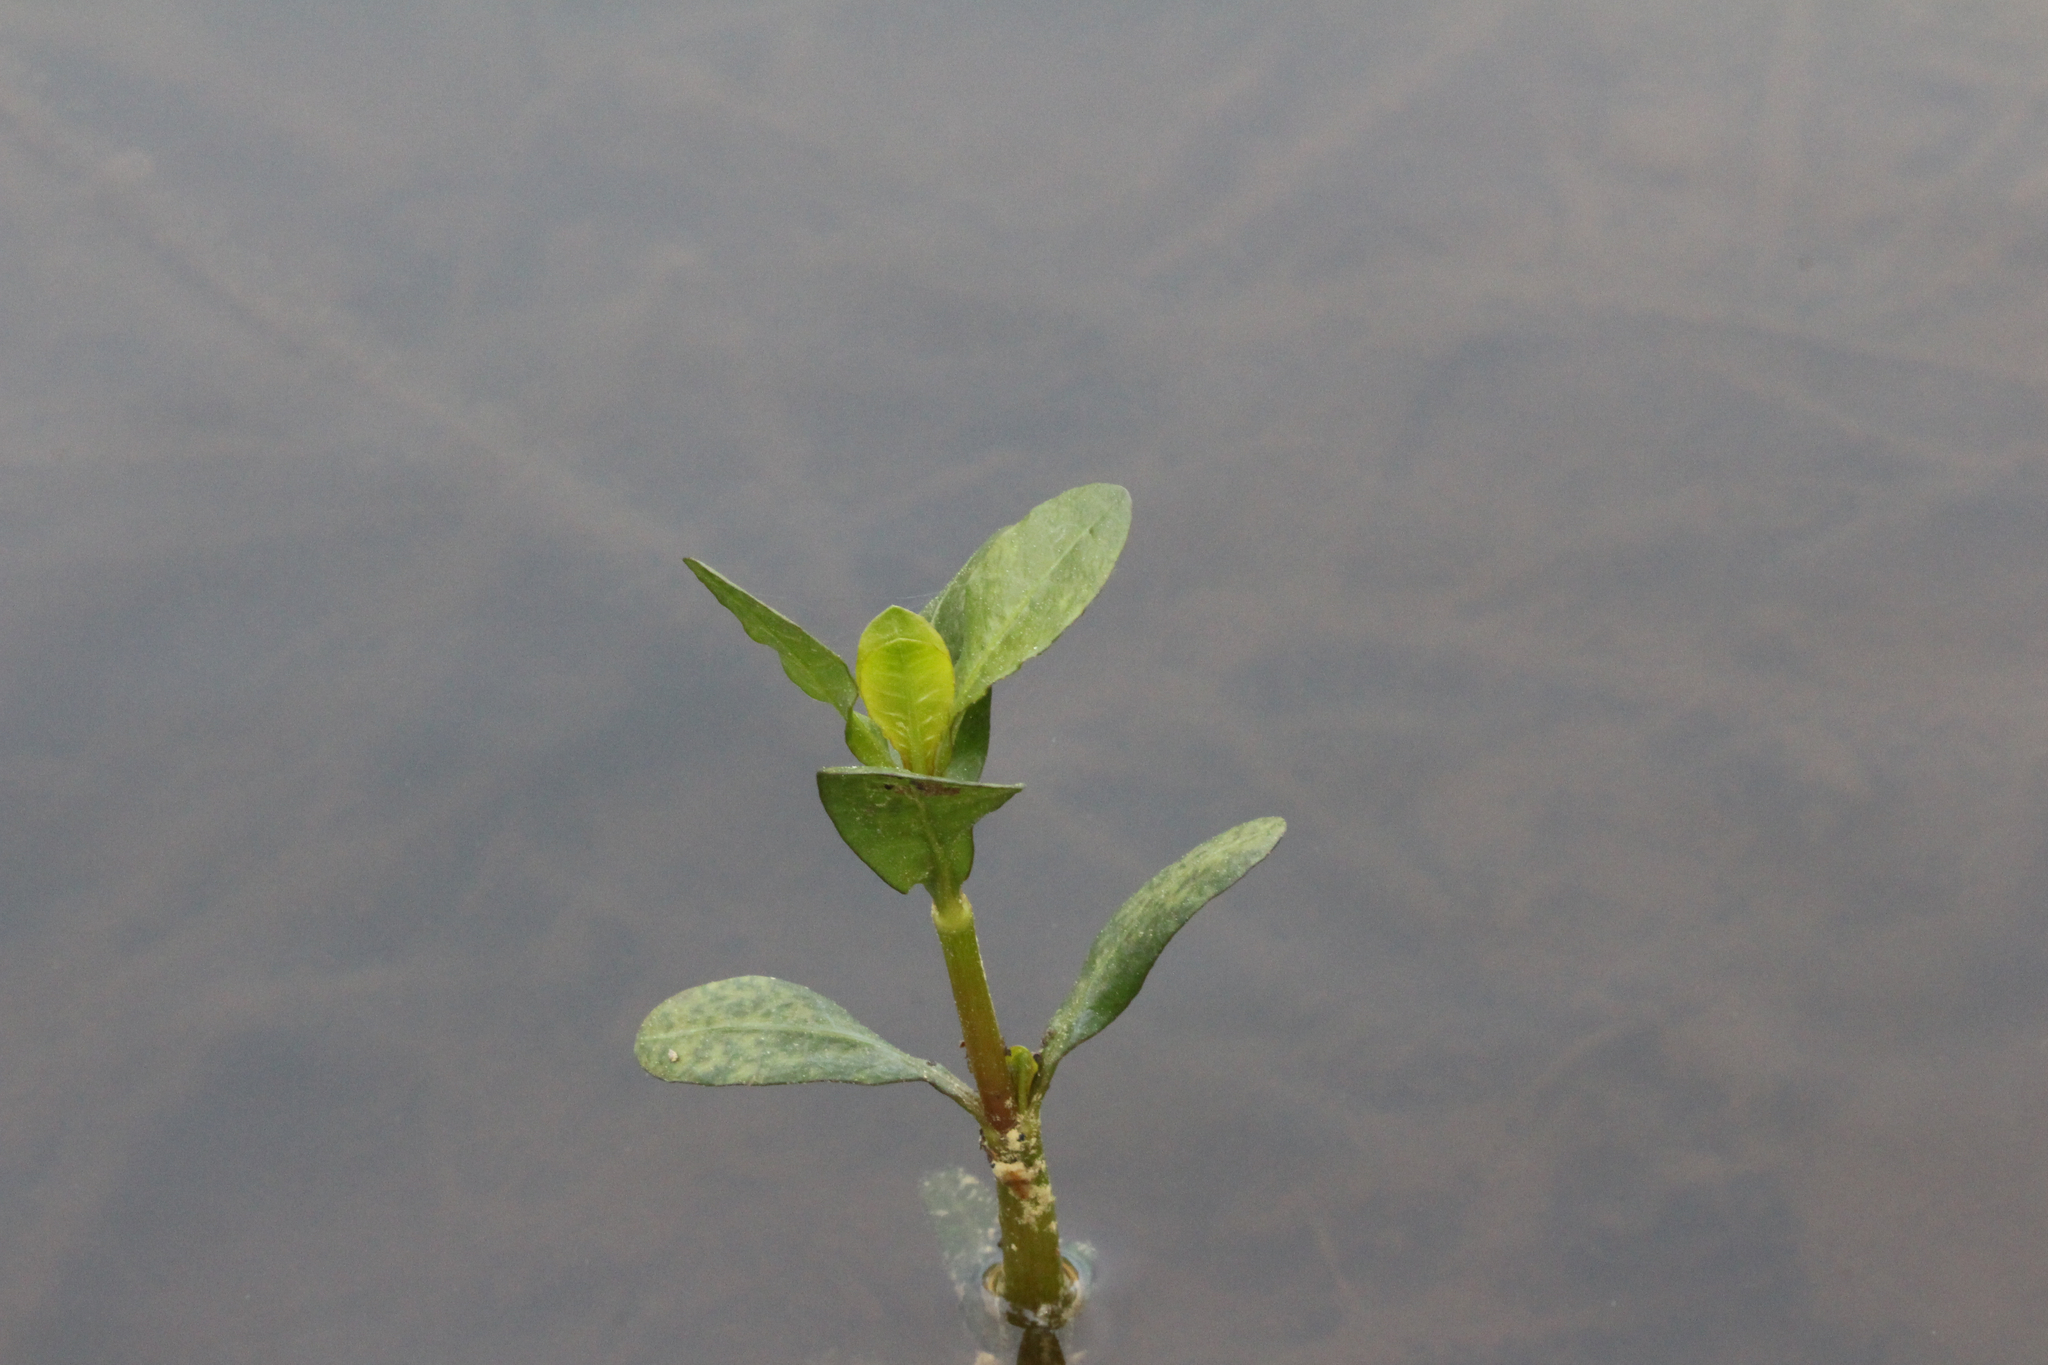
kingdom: Plantae
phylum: Tracheophyta
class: Magnoliopsida
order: Caryophyllales
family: Amaranthaceae
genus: Alternanthera
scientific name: Alternanthera philoxeroides
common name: Alligatorweed
